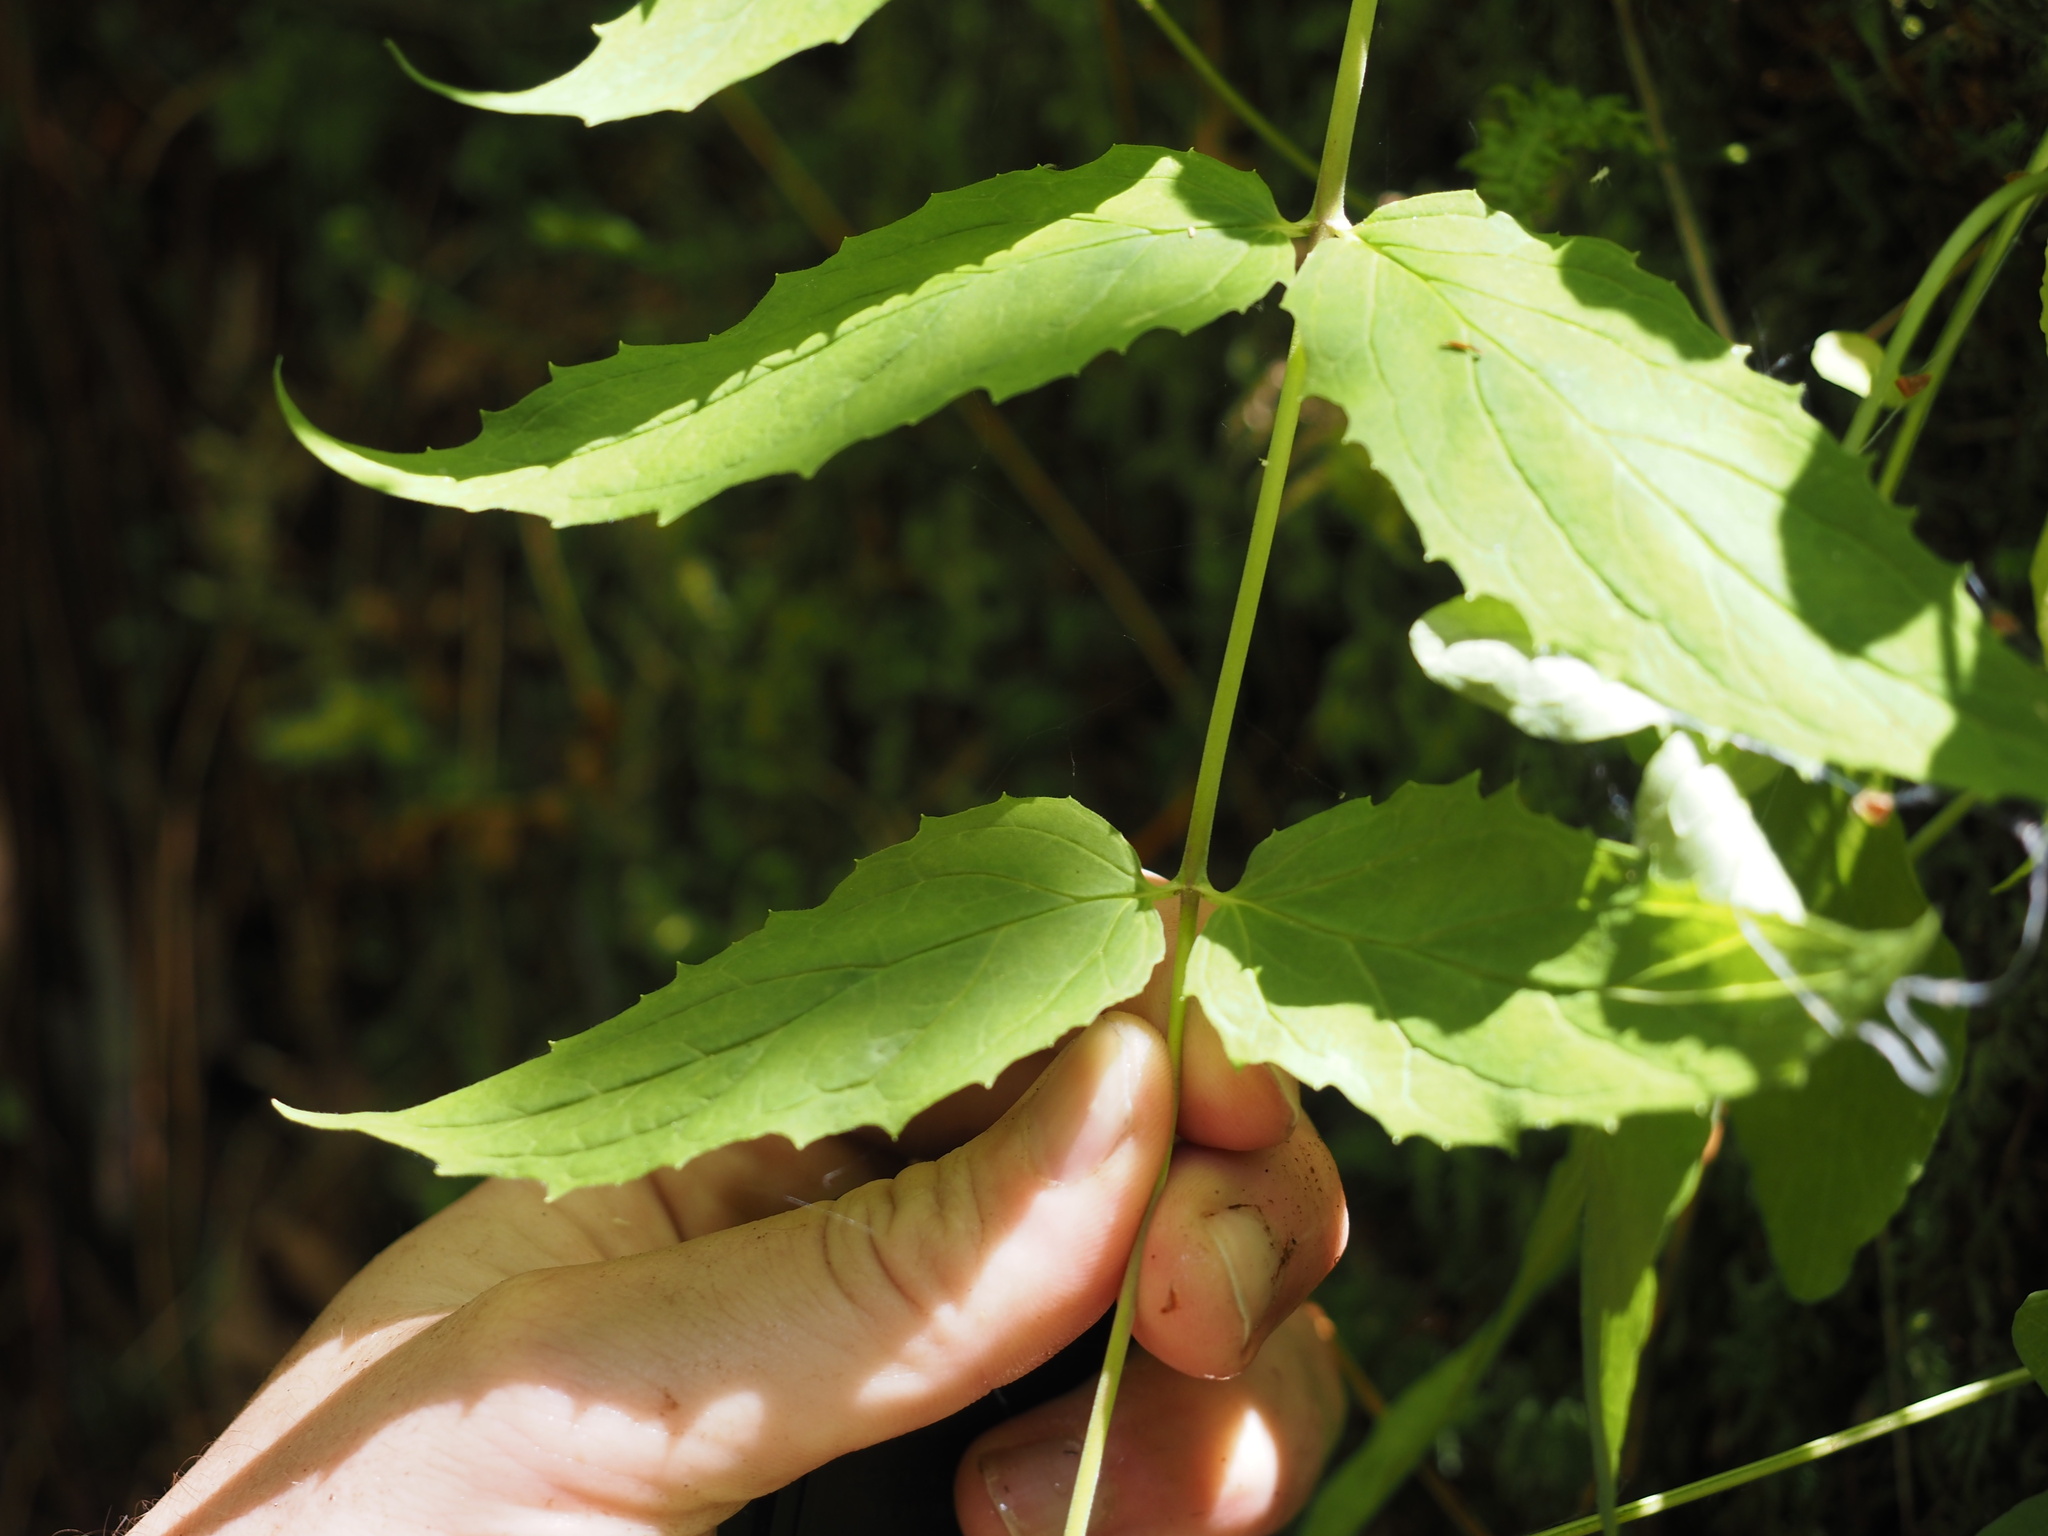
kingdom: Plantae
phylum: Tracheophyta
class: Magnoliopsida
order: Lamiales
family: Plantaginaceae
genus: Nothochelone
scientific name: Nothochelone nemorosa
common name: Woodland beardtongue
